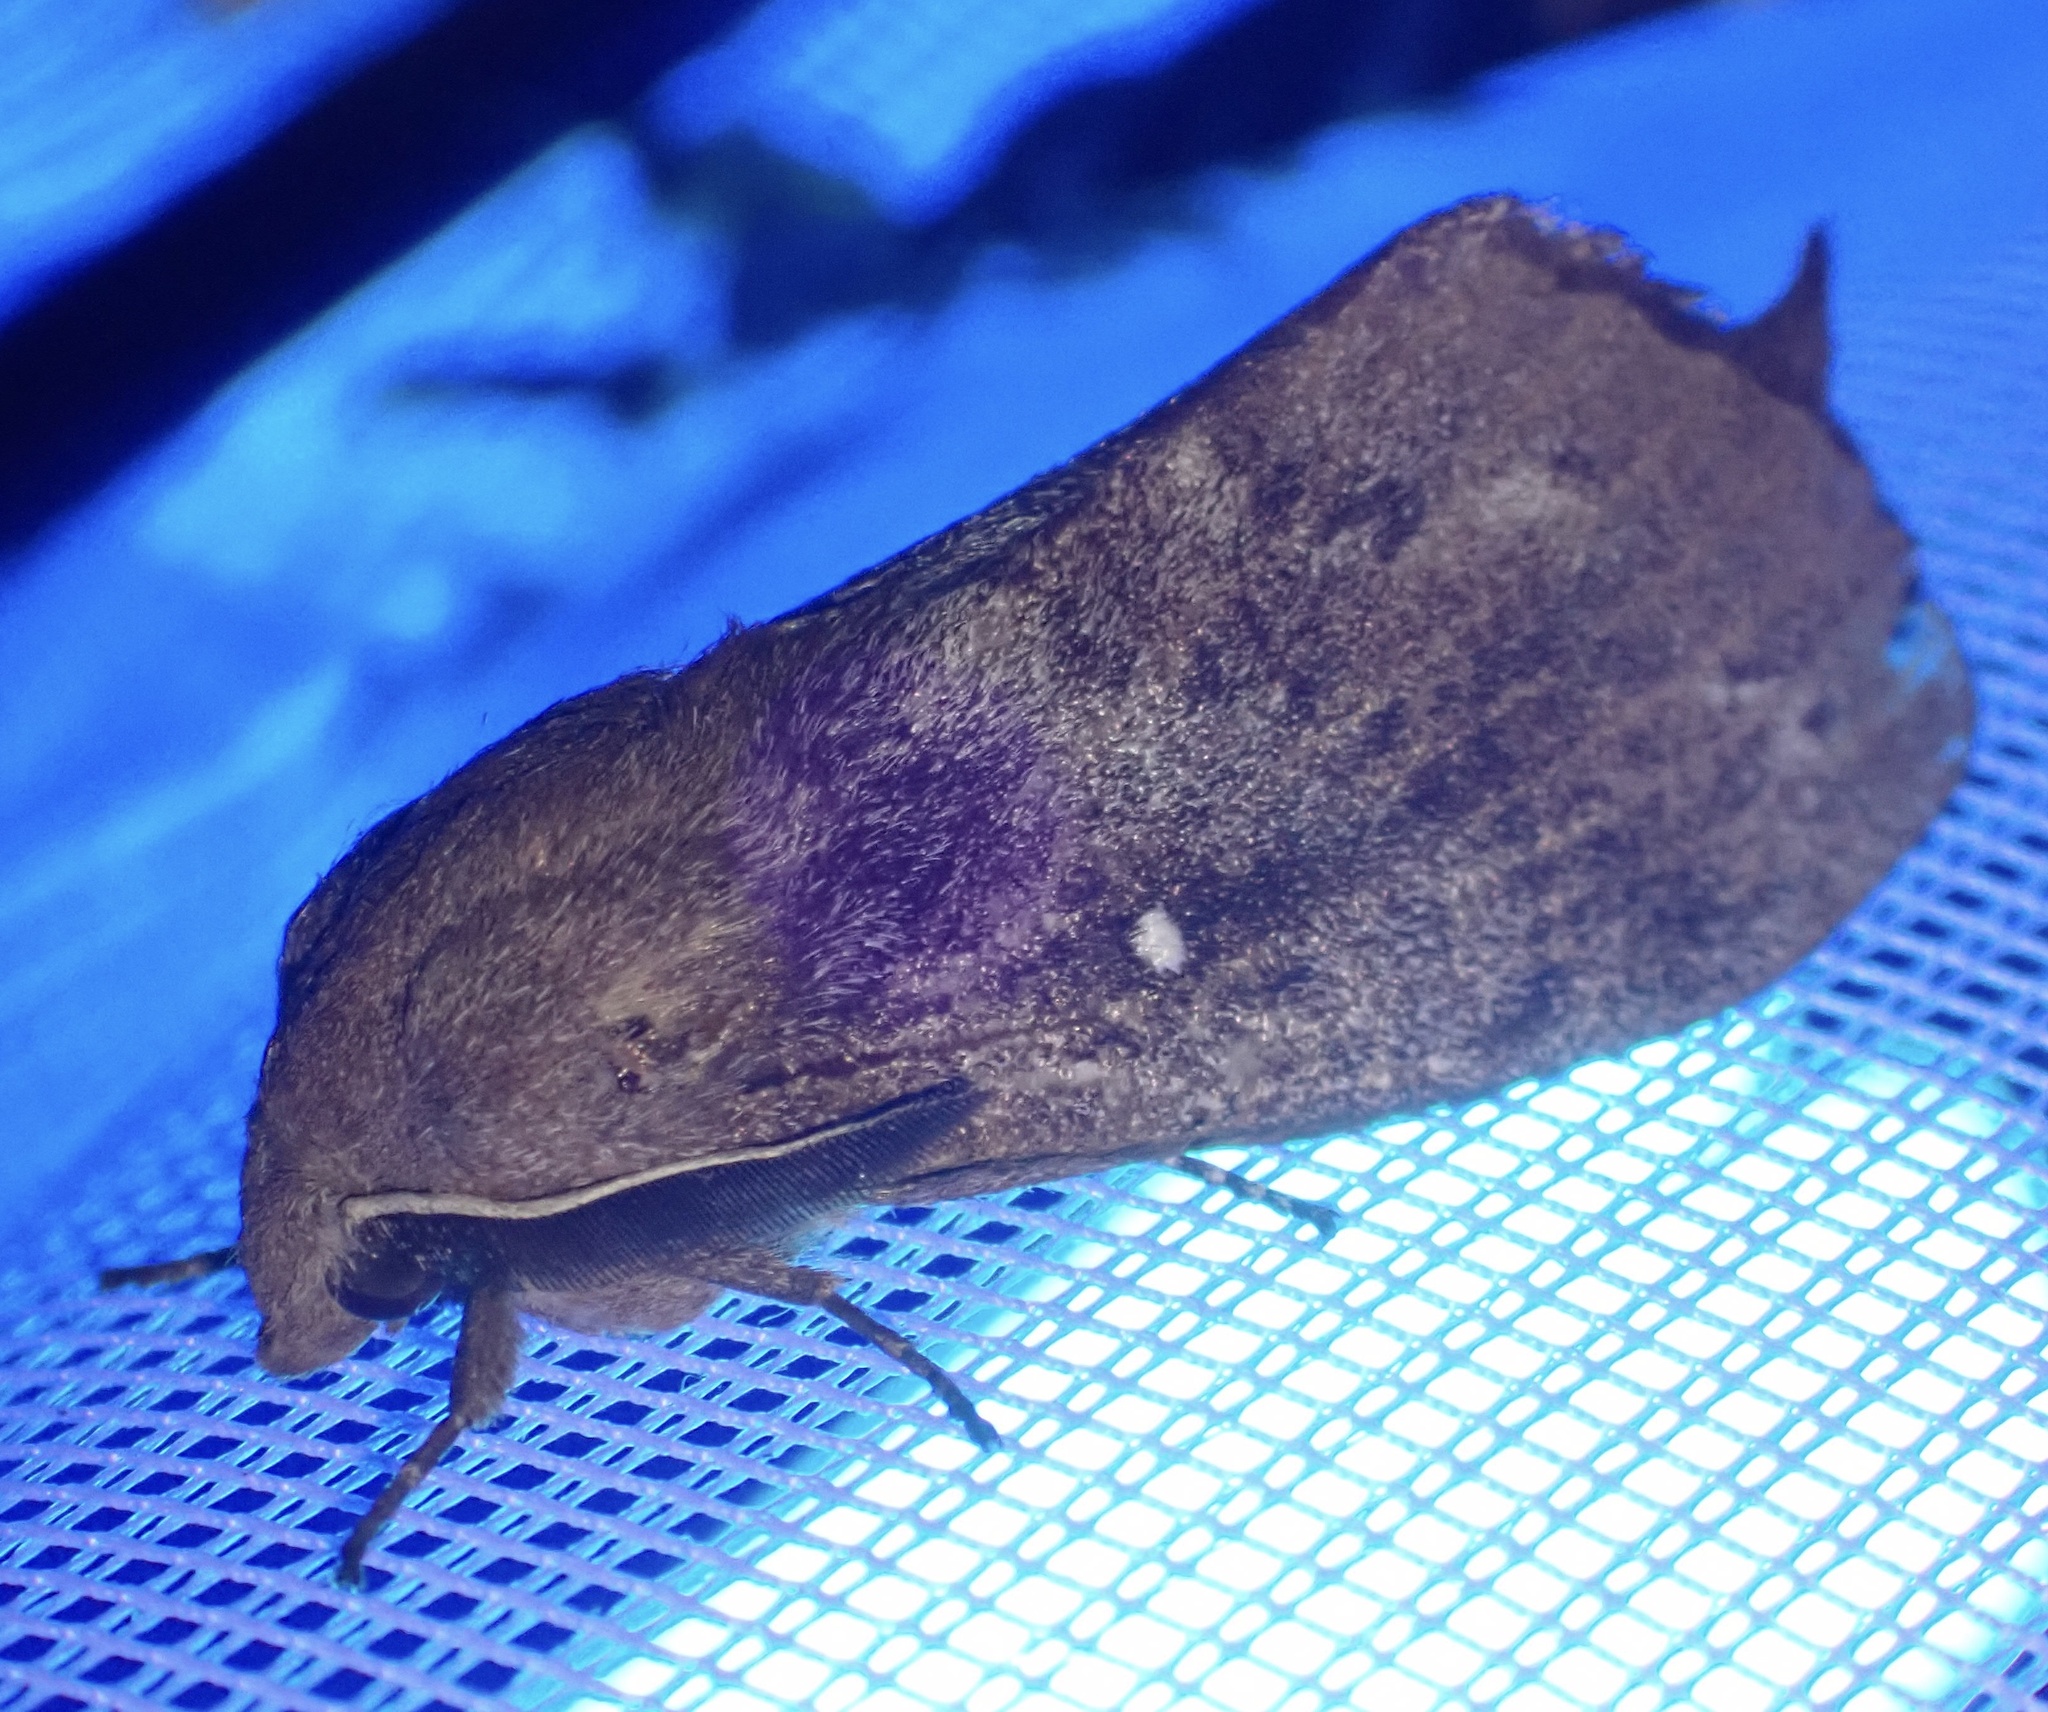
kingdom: Animalia
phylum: Arthropoda
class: Insecta
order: Lepidoptera
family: Lasiocampidae
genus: Dendrolimus
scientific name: Dendrolimus pini
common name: Pine-tree lappet
